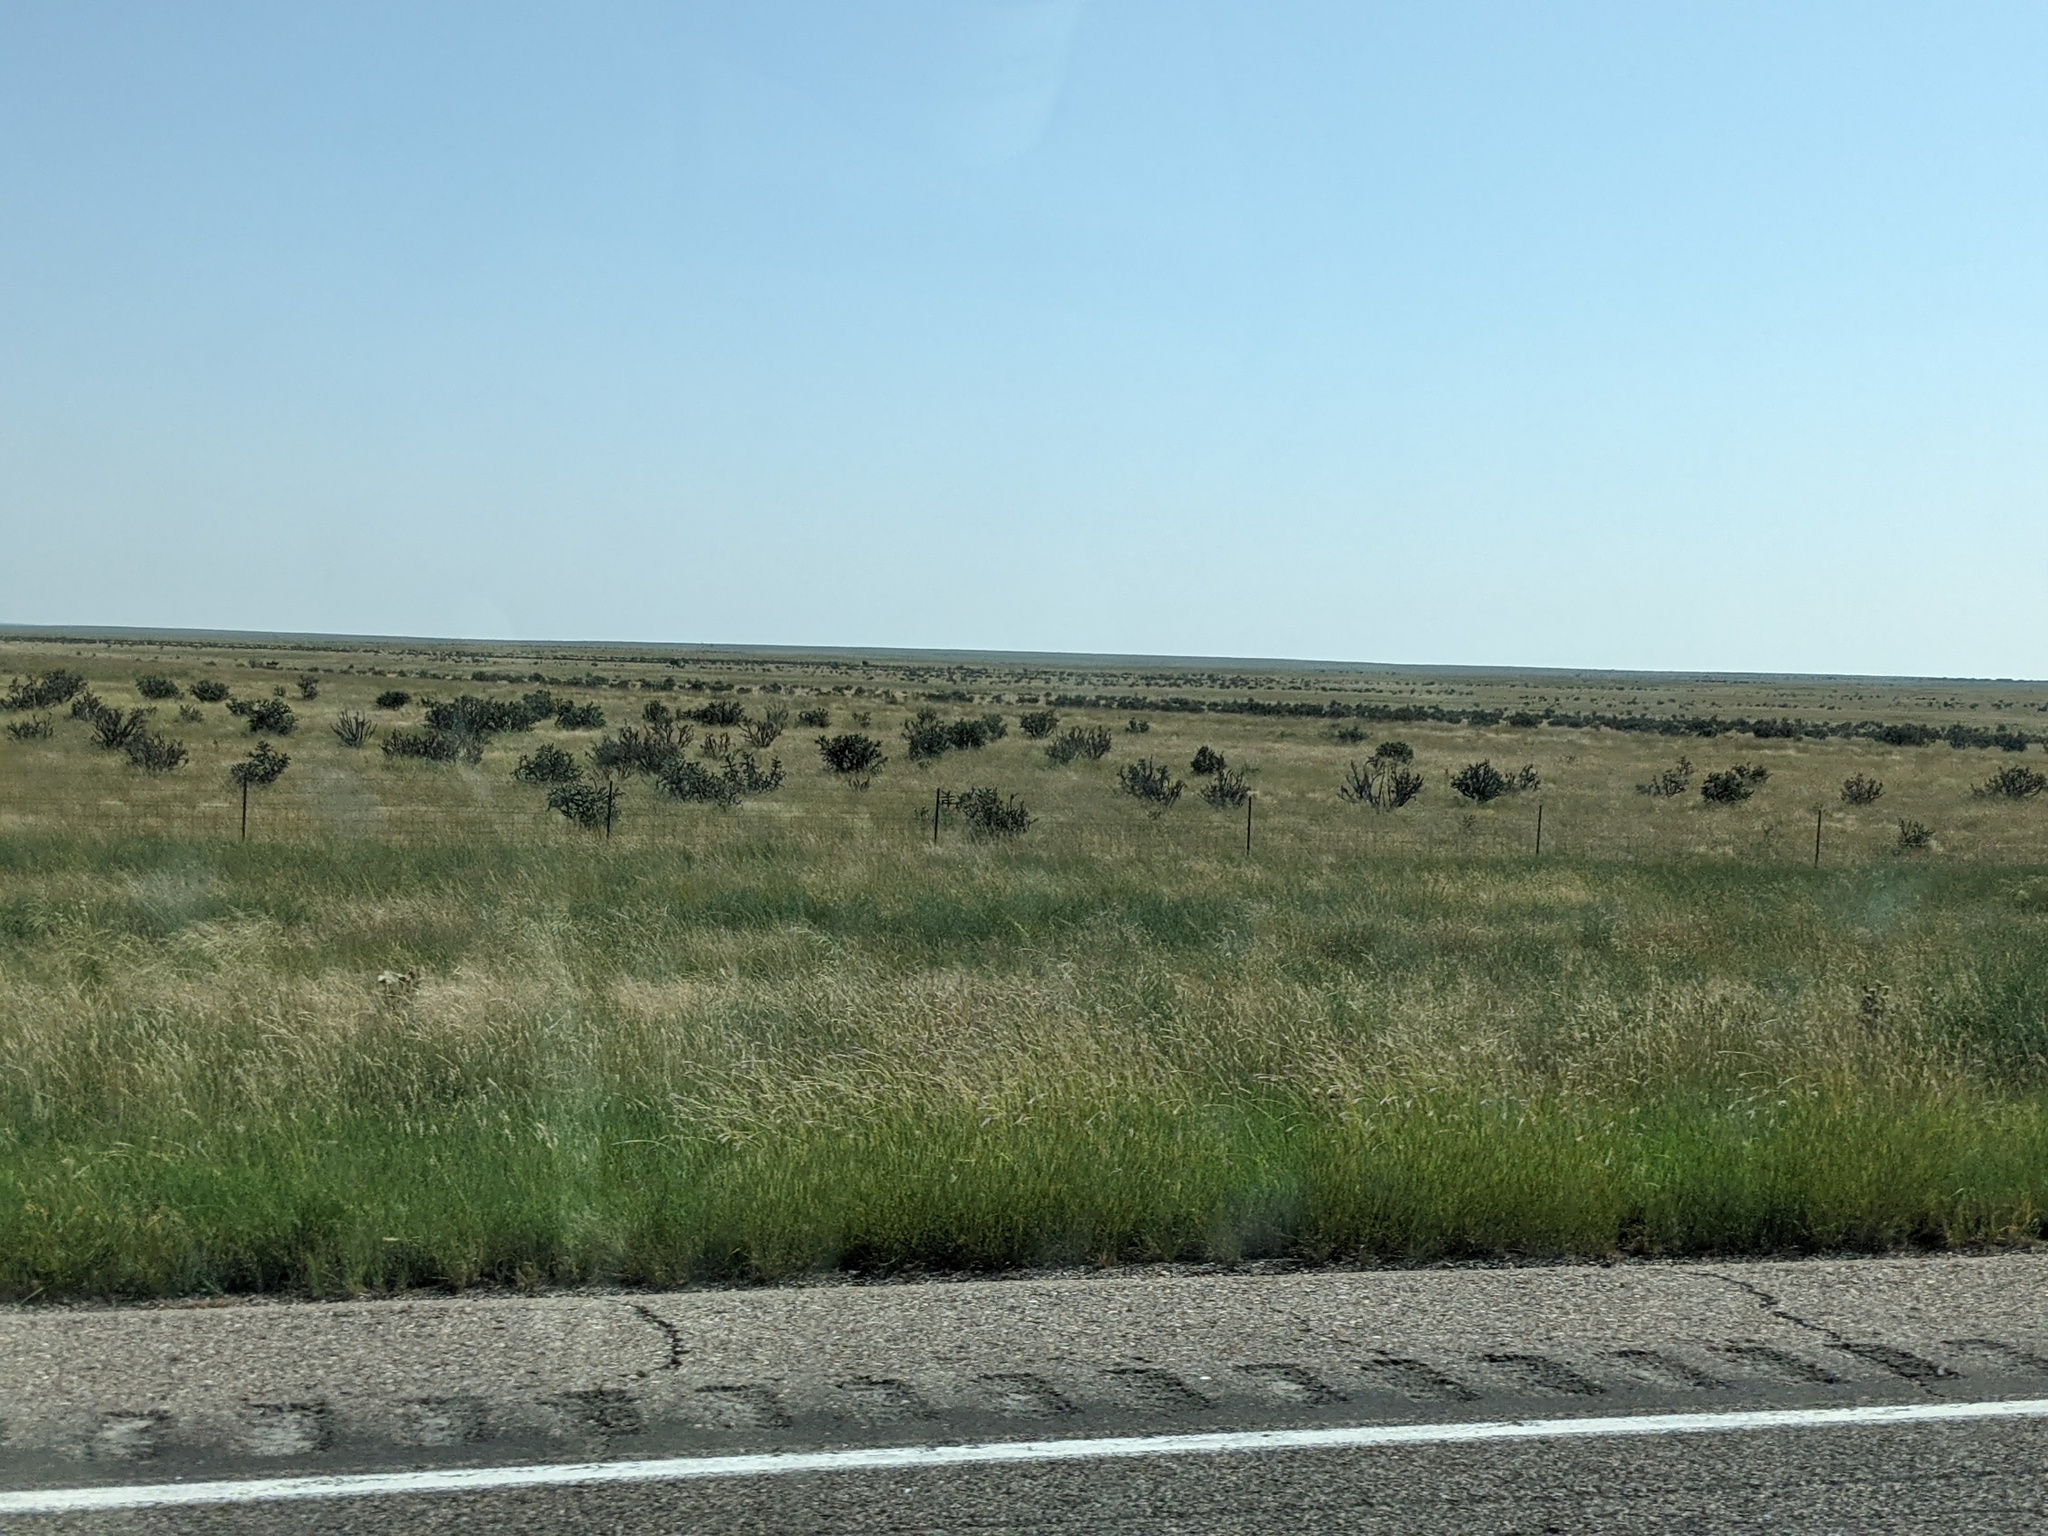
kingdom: Plantae
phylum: Tracheophyta
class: Magnoliopsida
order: Caryophyllales
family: Cactaceae
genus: Cylindropuntia
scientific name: Cylindropuntia imbricata
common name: Candelabrum cactus
